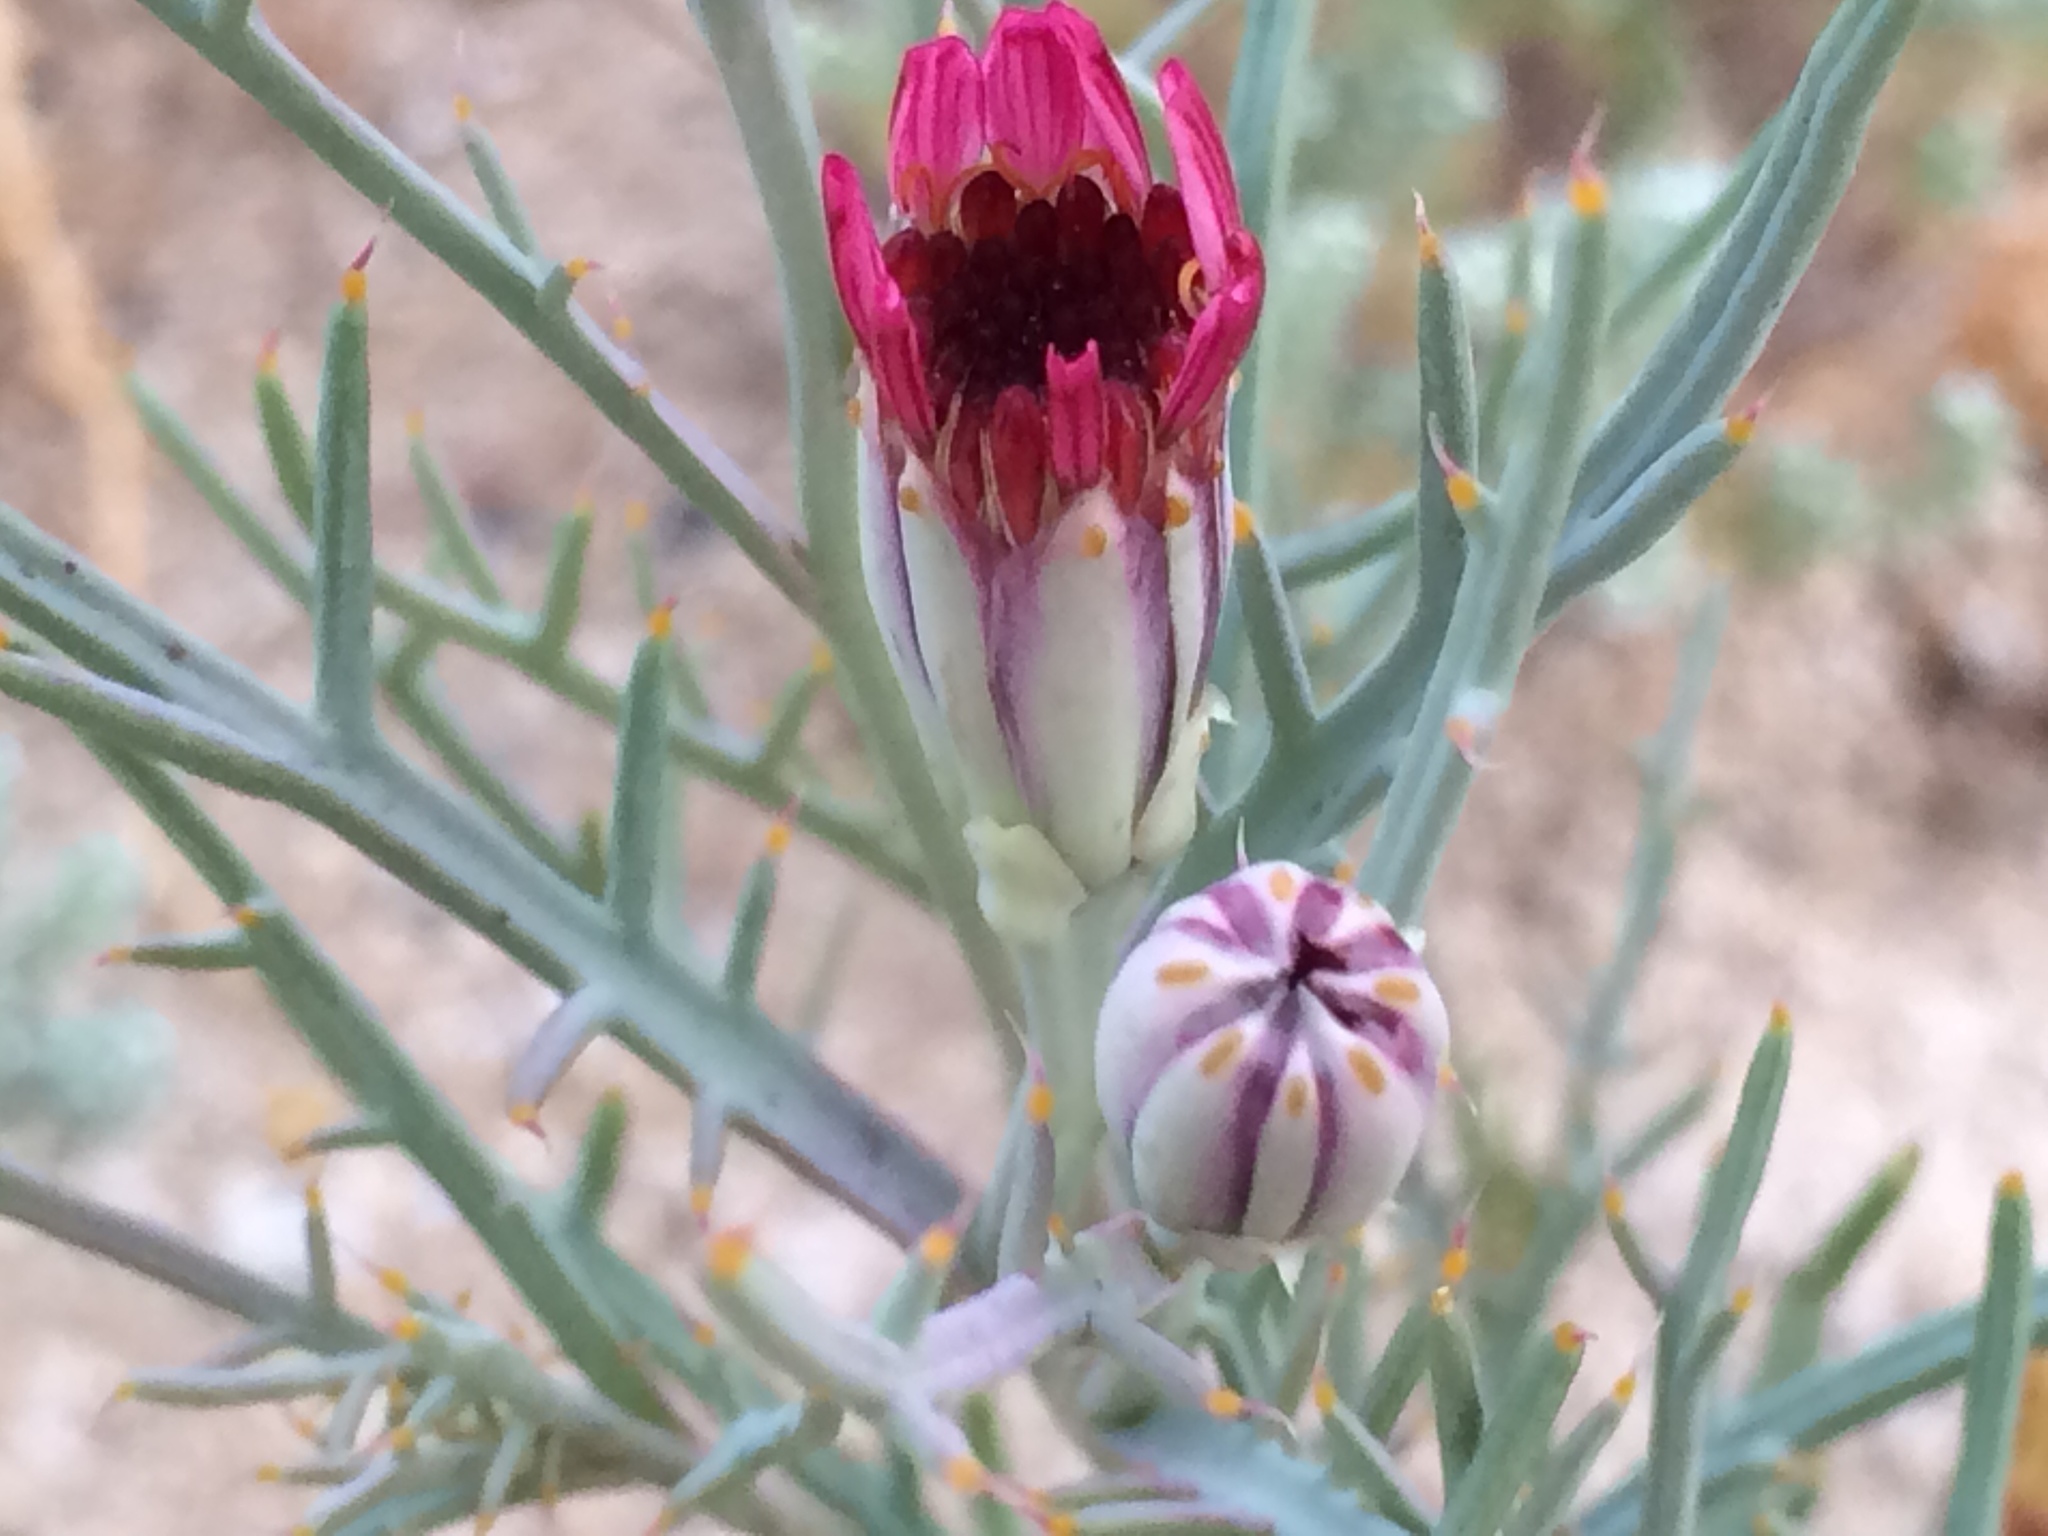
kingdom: Plantae
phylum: Tracheophyta
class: Magnoliopsida
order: Asterales
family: Asteraceae
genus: Nicolletia
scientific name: Nicolletia occidentalis
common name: Hole-in-the-sand-plant
